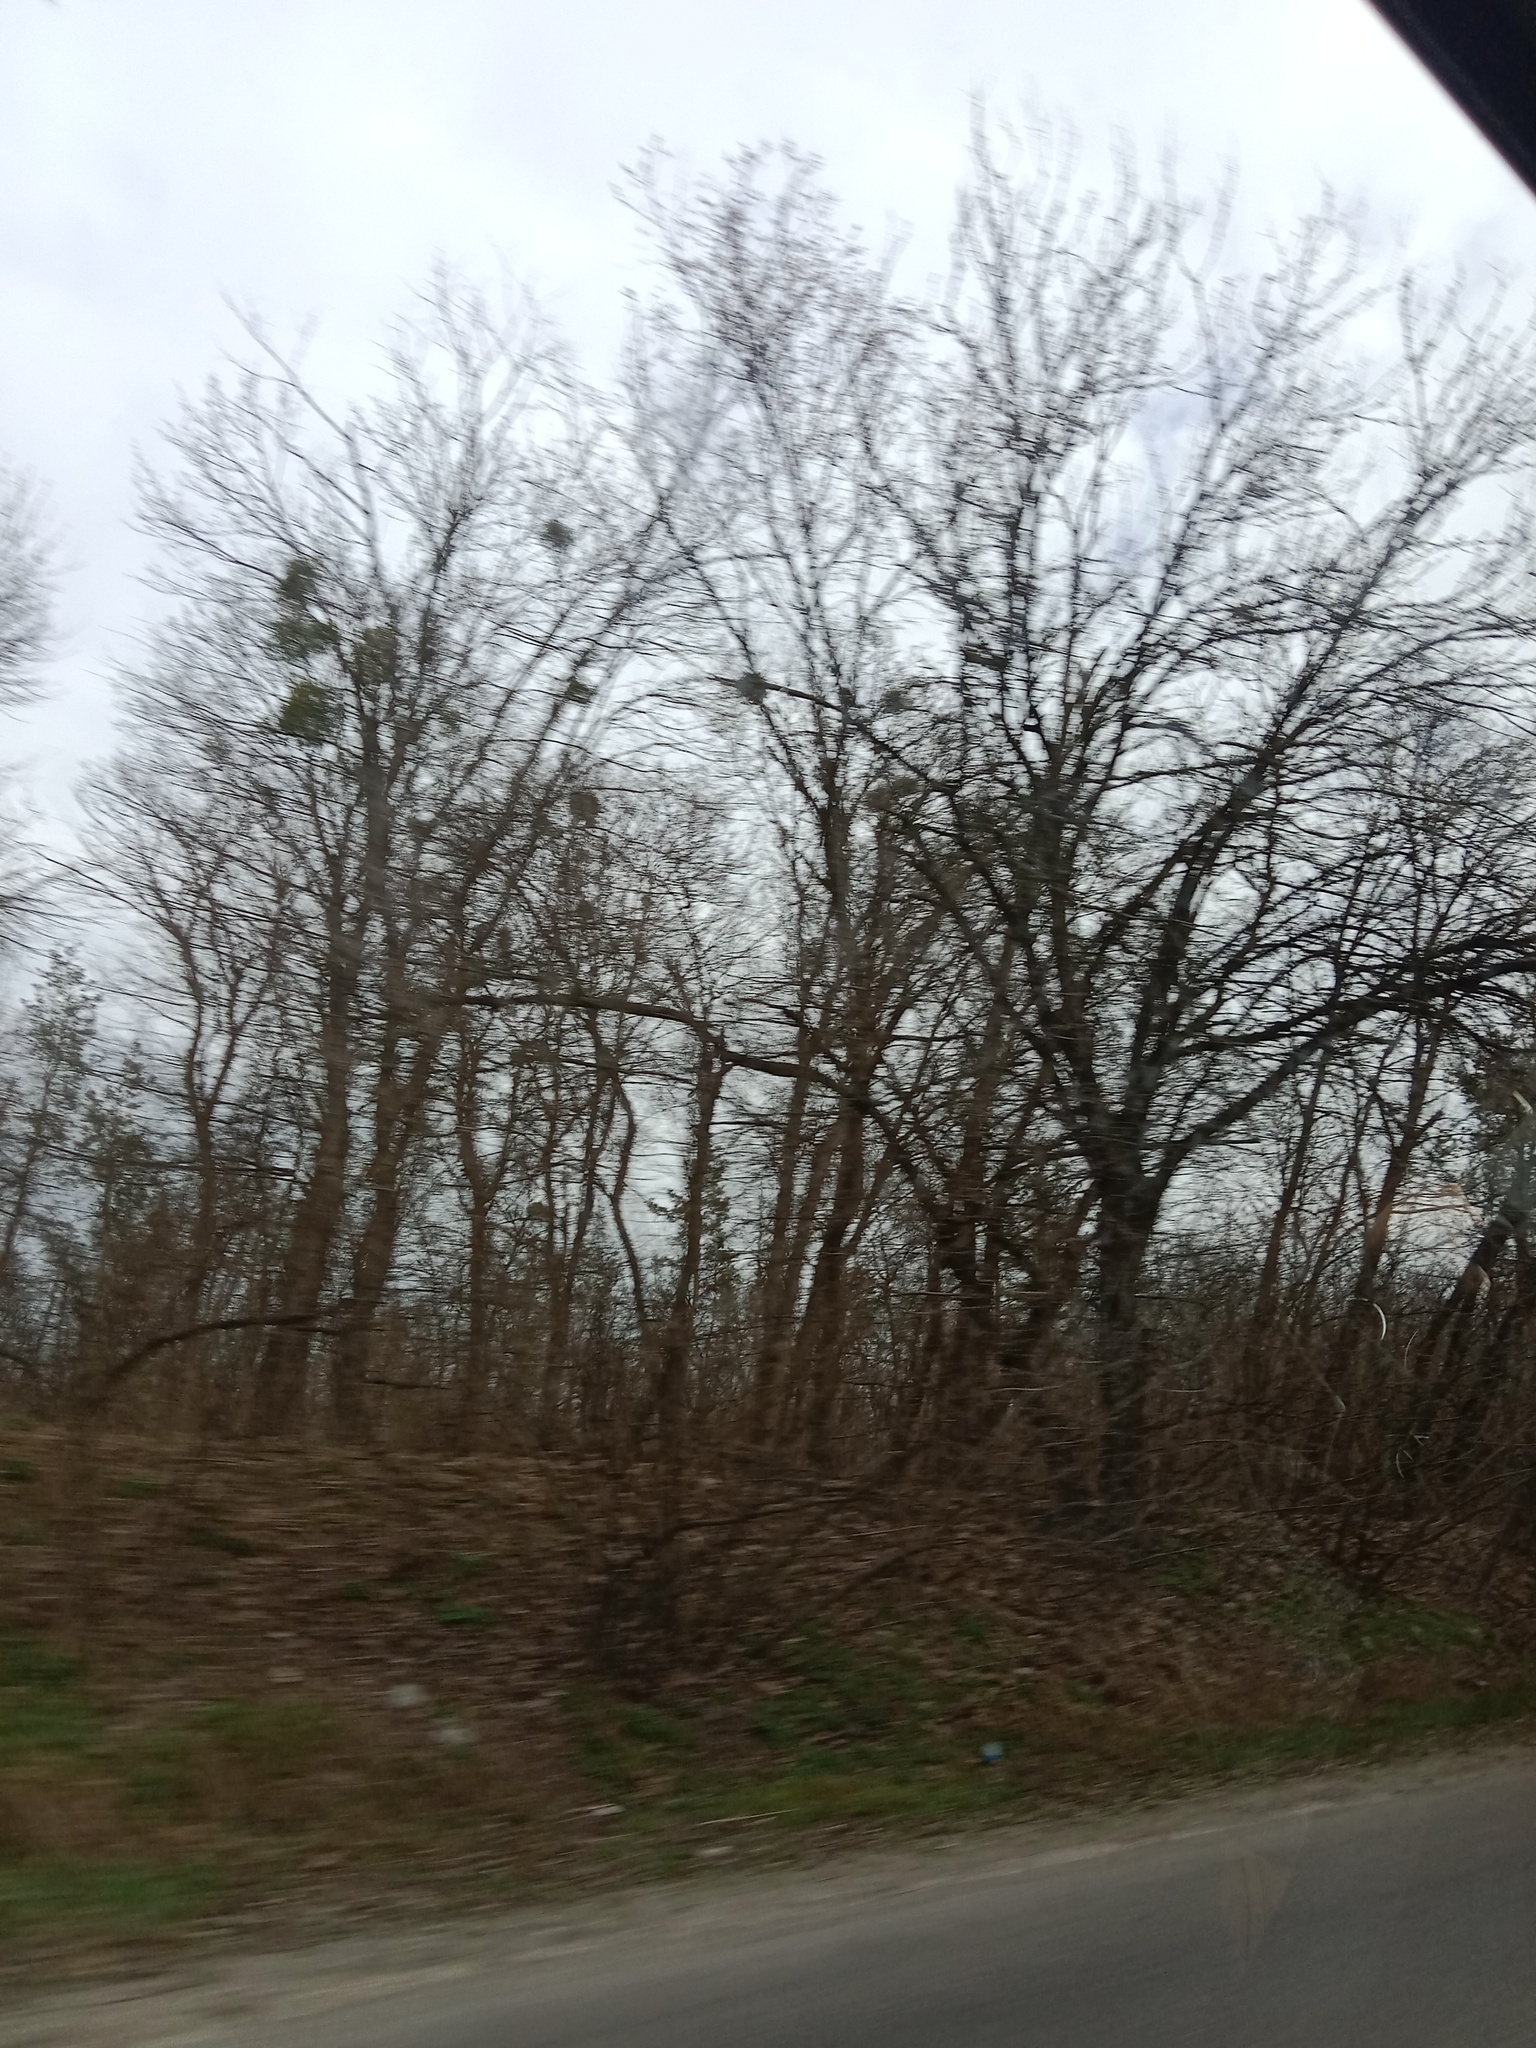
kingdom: Plantae
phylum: Tracheophyta
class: Magnoliopsida
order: Santalales
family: Viscaceae
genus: Viscum
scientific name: Viscum album
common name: Mistletoe
